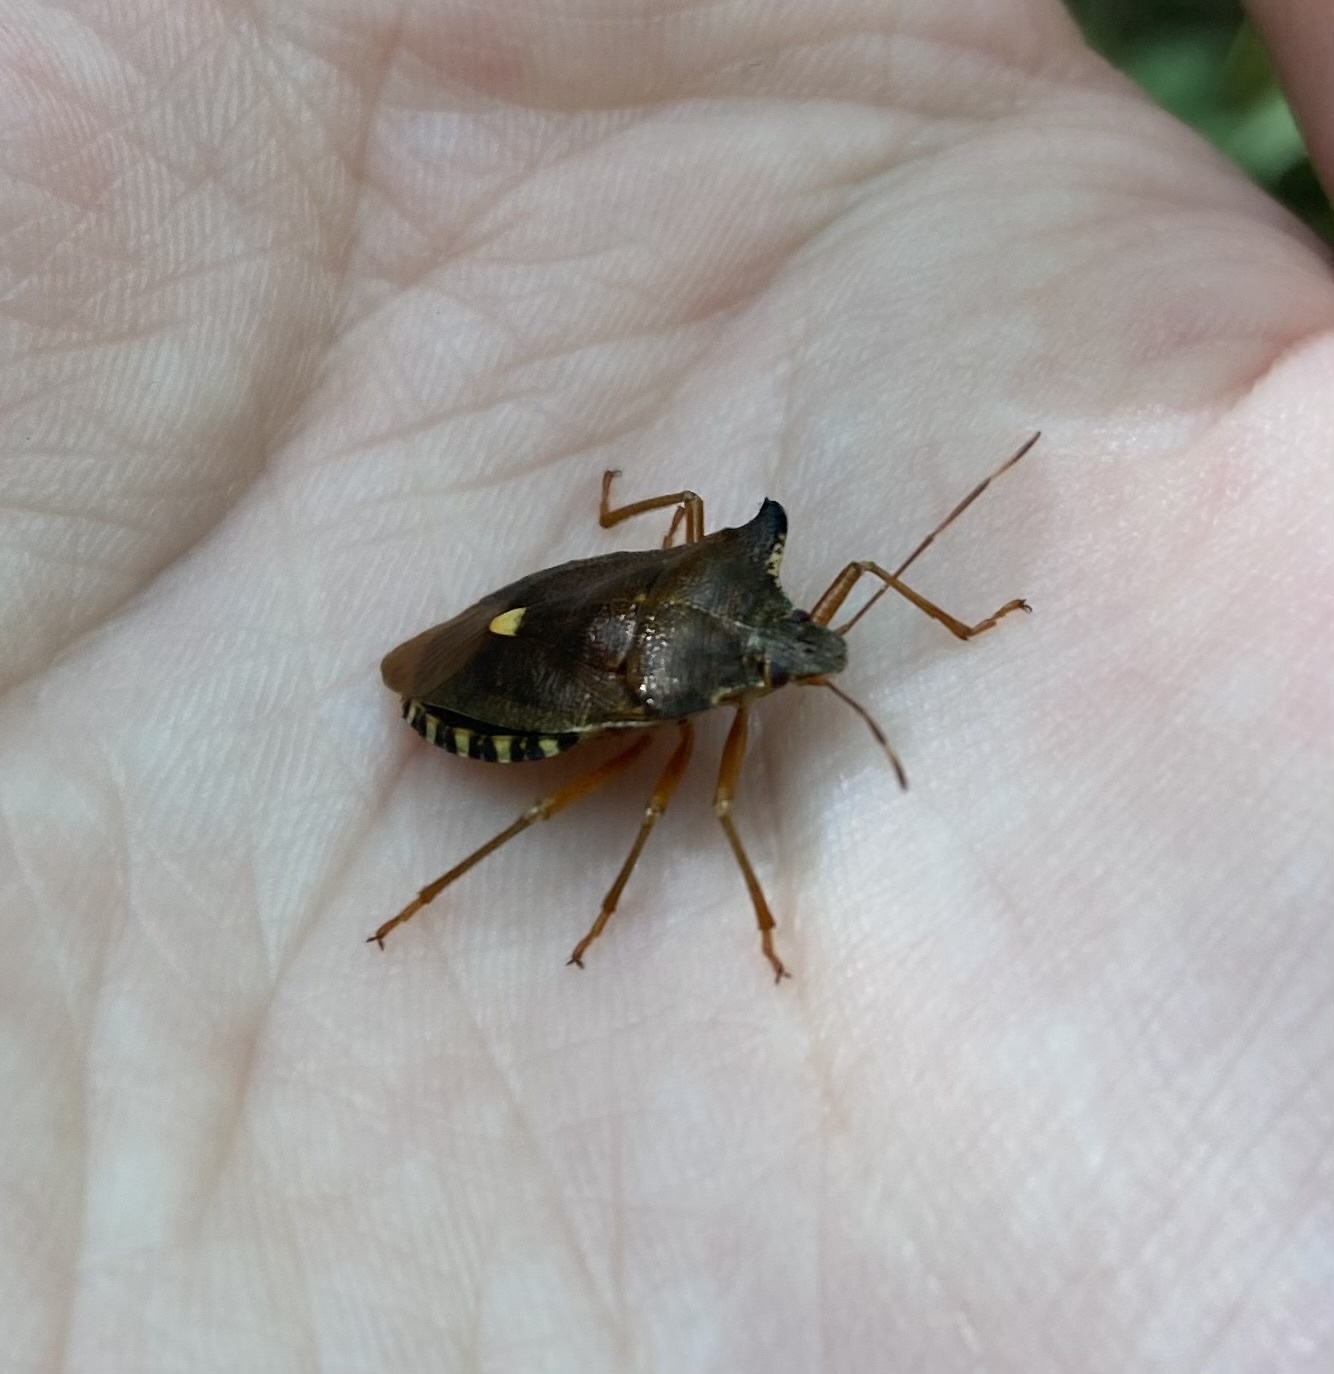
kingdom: Animalia
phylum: Arthropoda
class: Insecta
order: Hemiptera
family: Pentatomidae
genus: Pentatoma
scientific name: Pentatoma rufipes
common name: Forest bug
